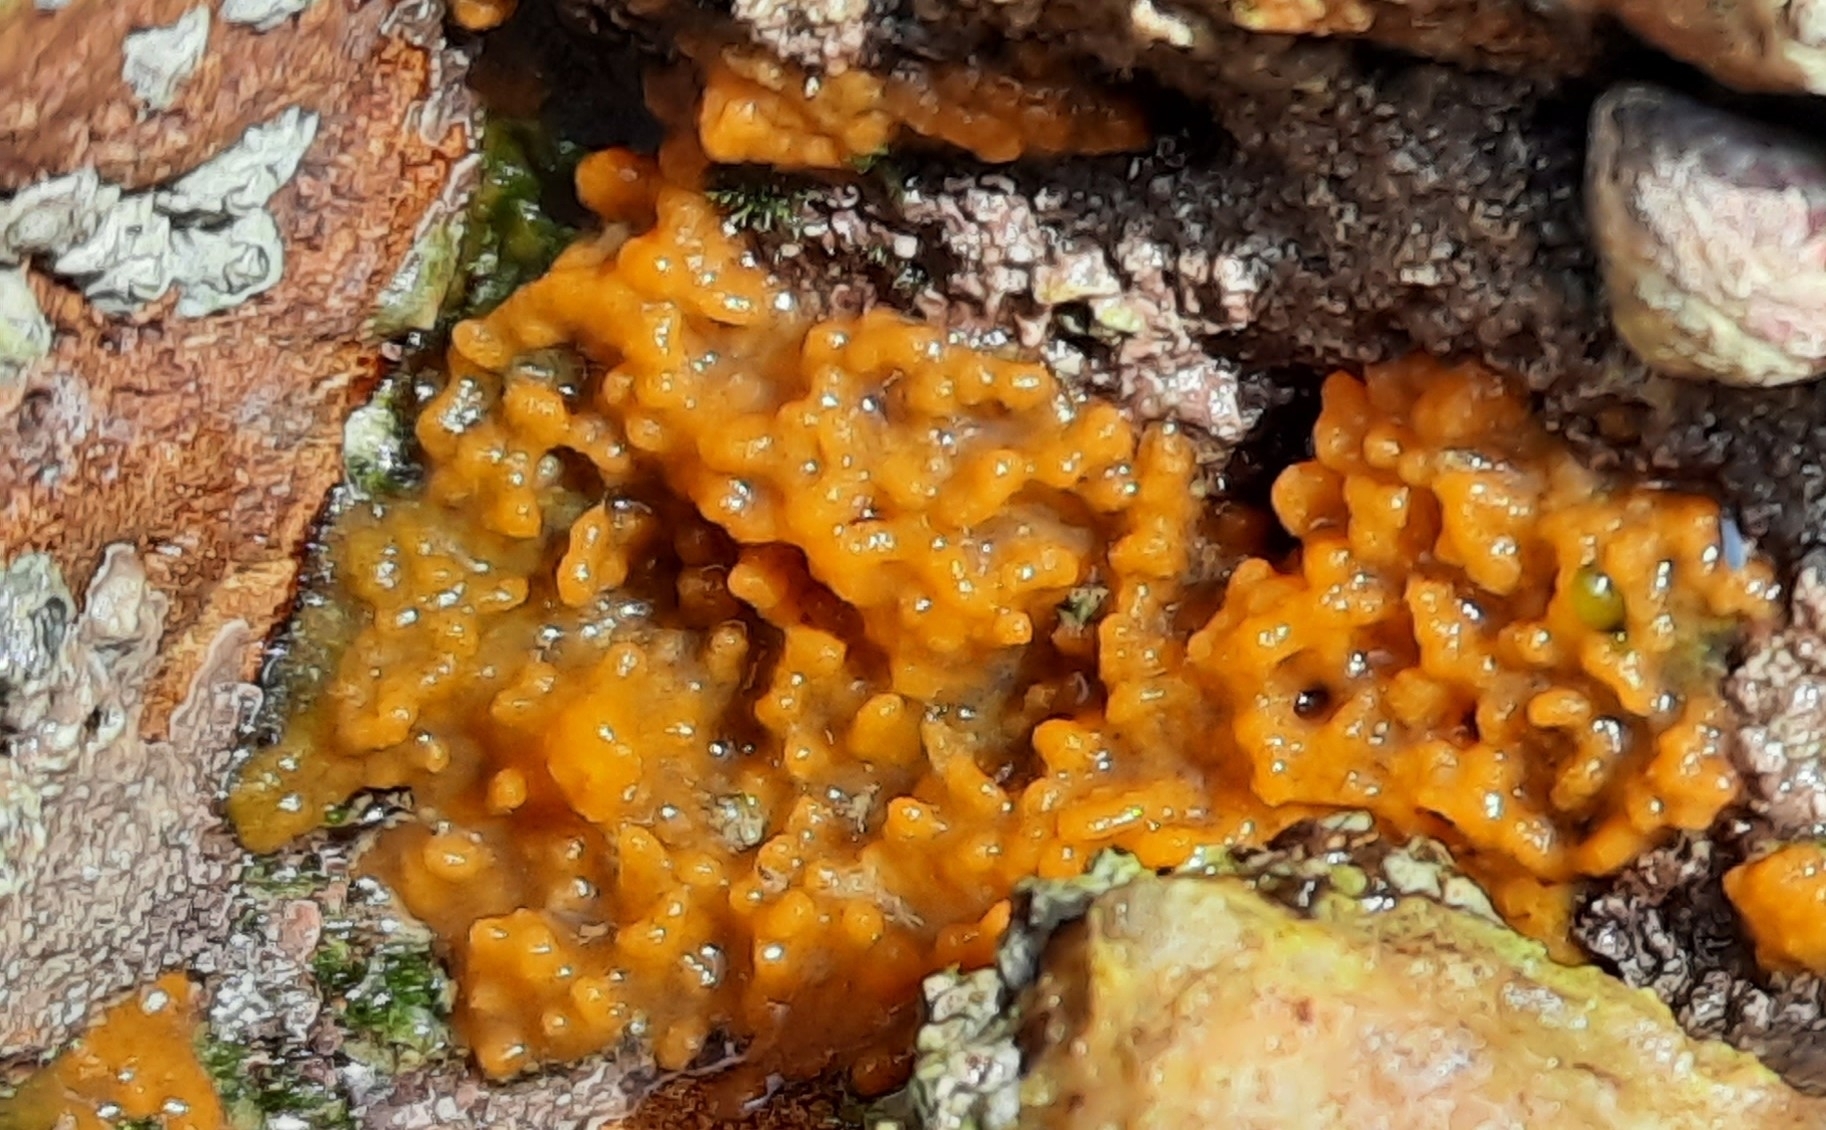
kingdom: Animalia
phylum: Porifera
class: Demospongiae
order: Suberitida
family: Halichondriidae
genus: Hymeniacidon
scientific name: Hymeniacidon perlevis
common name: Crumb-of-bread sponge
